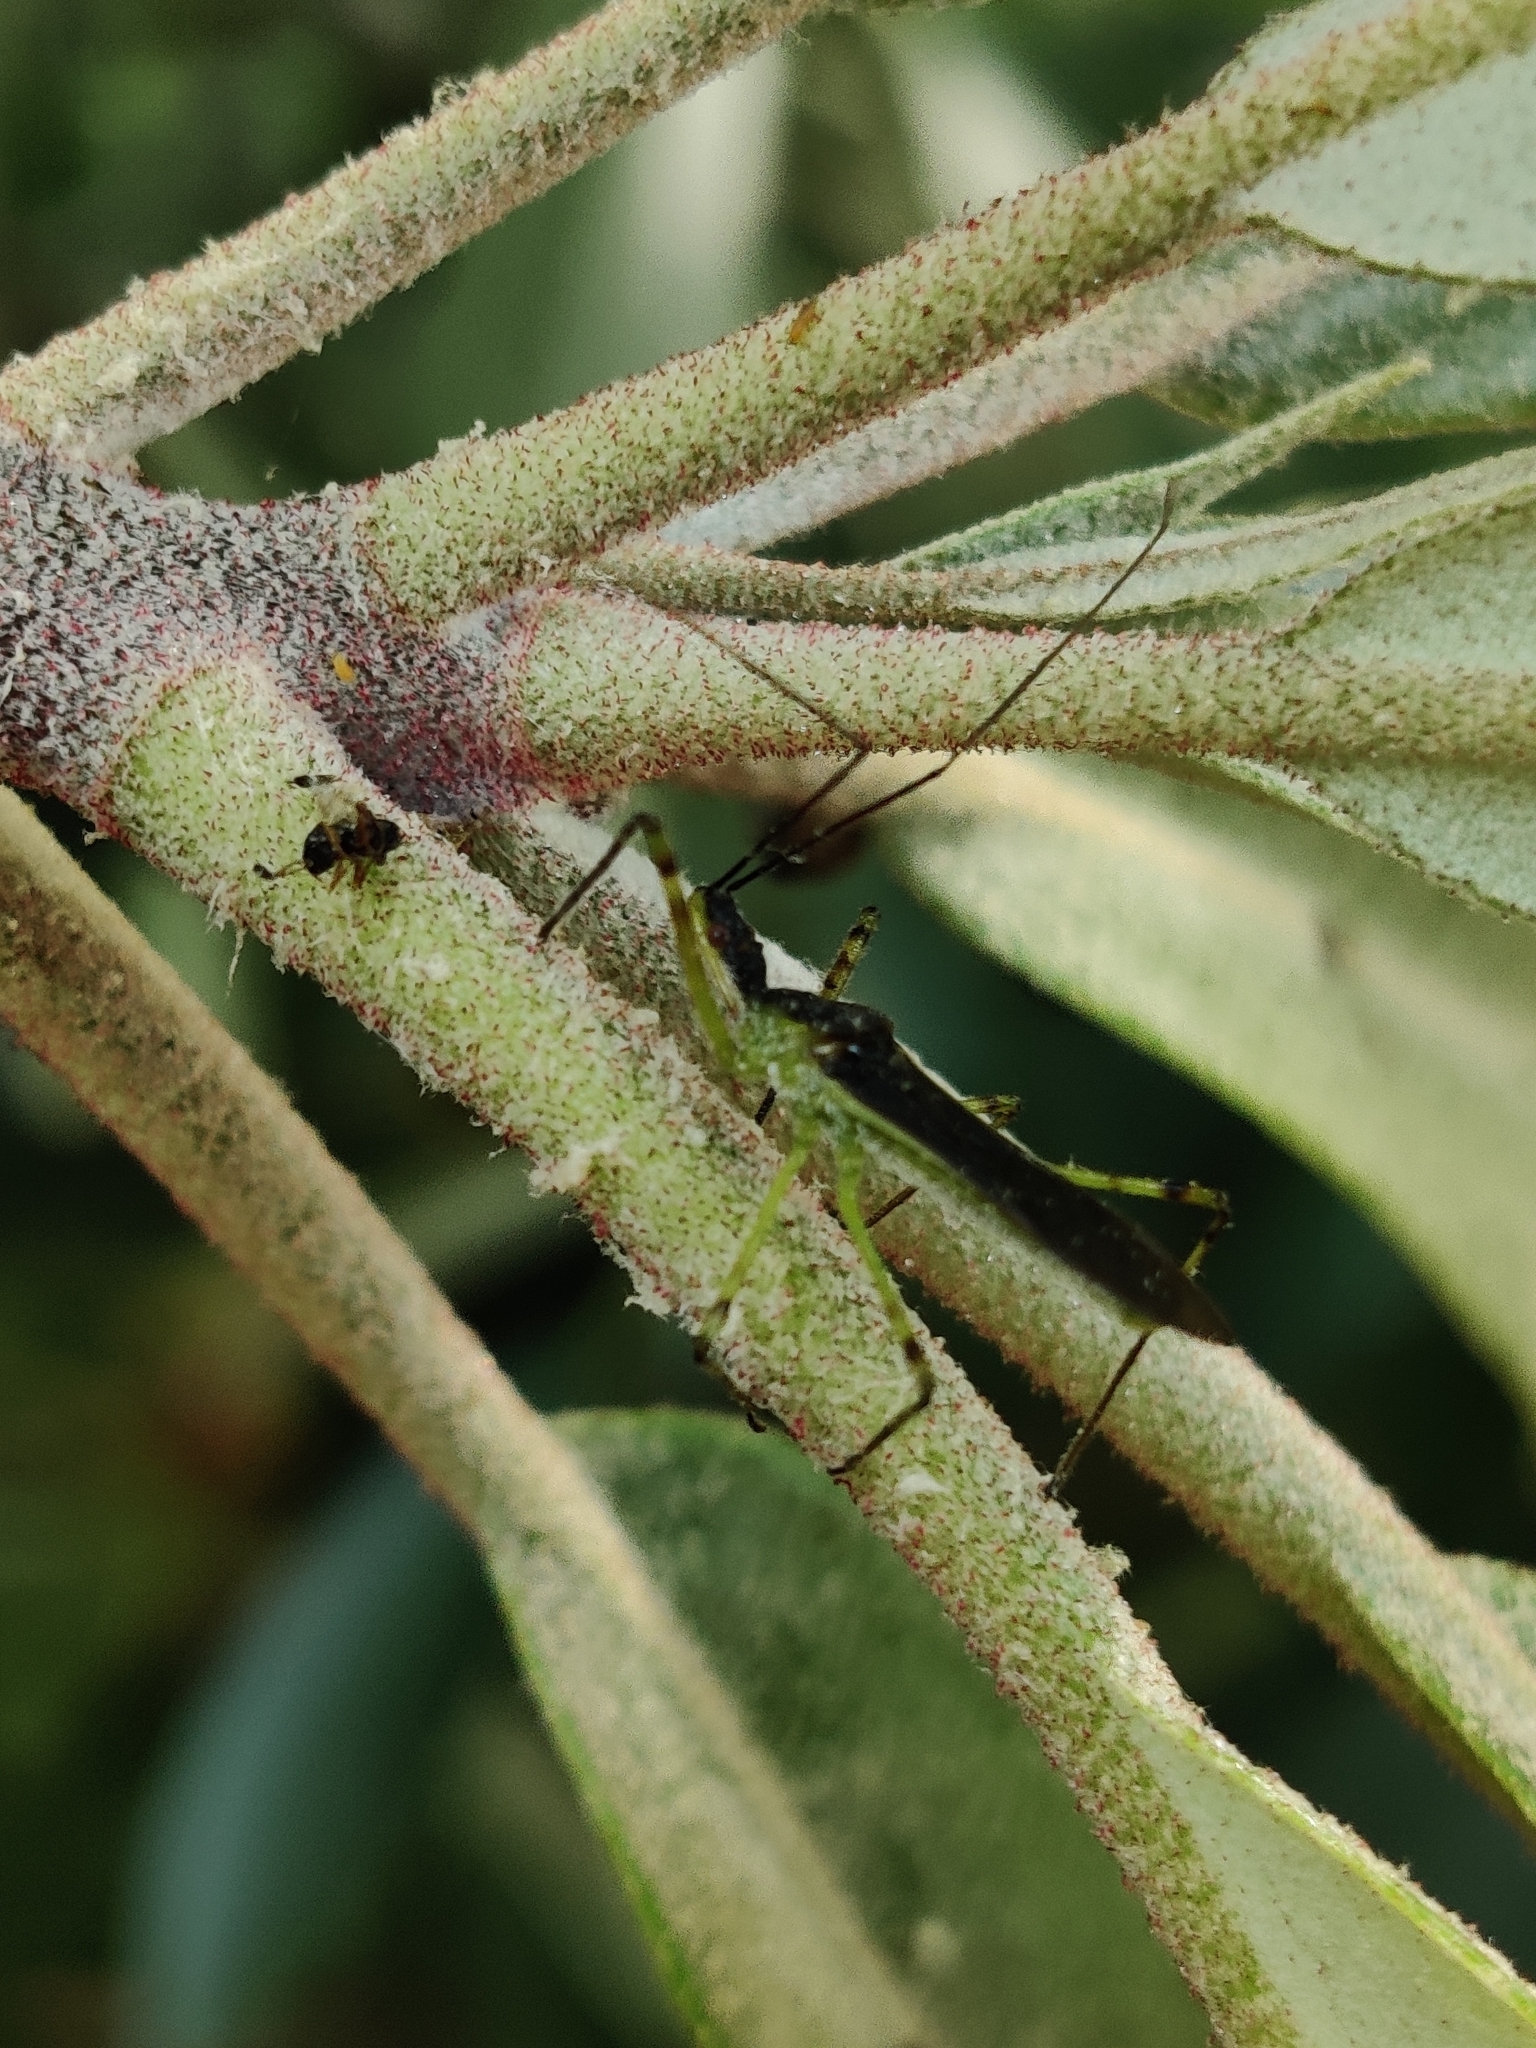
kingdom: Animalia
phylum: Arthropoda
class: Insecta
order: Hemiptera
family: Reduviidae
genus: Zelus
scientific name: Zelus luridus
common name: Pale green assassin bug
